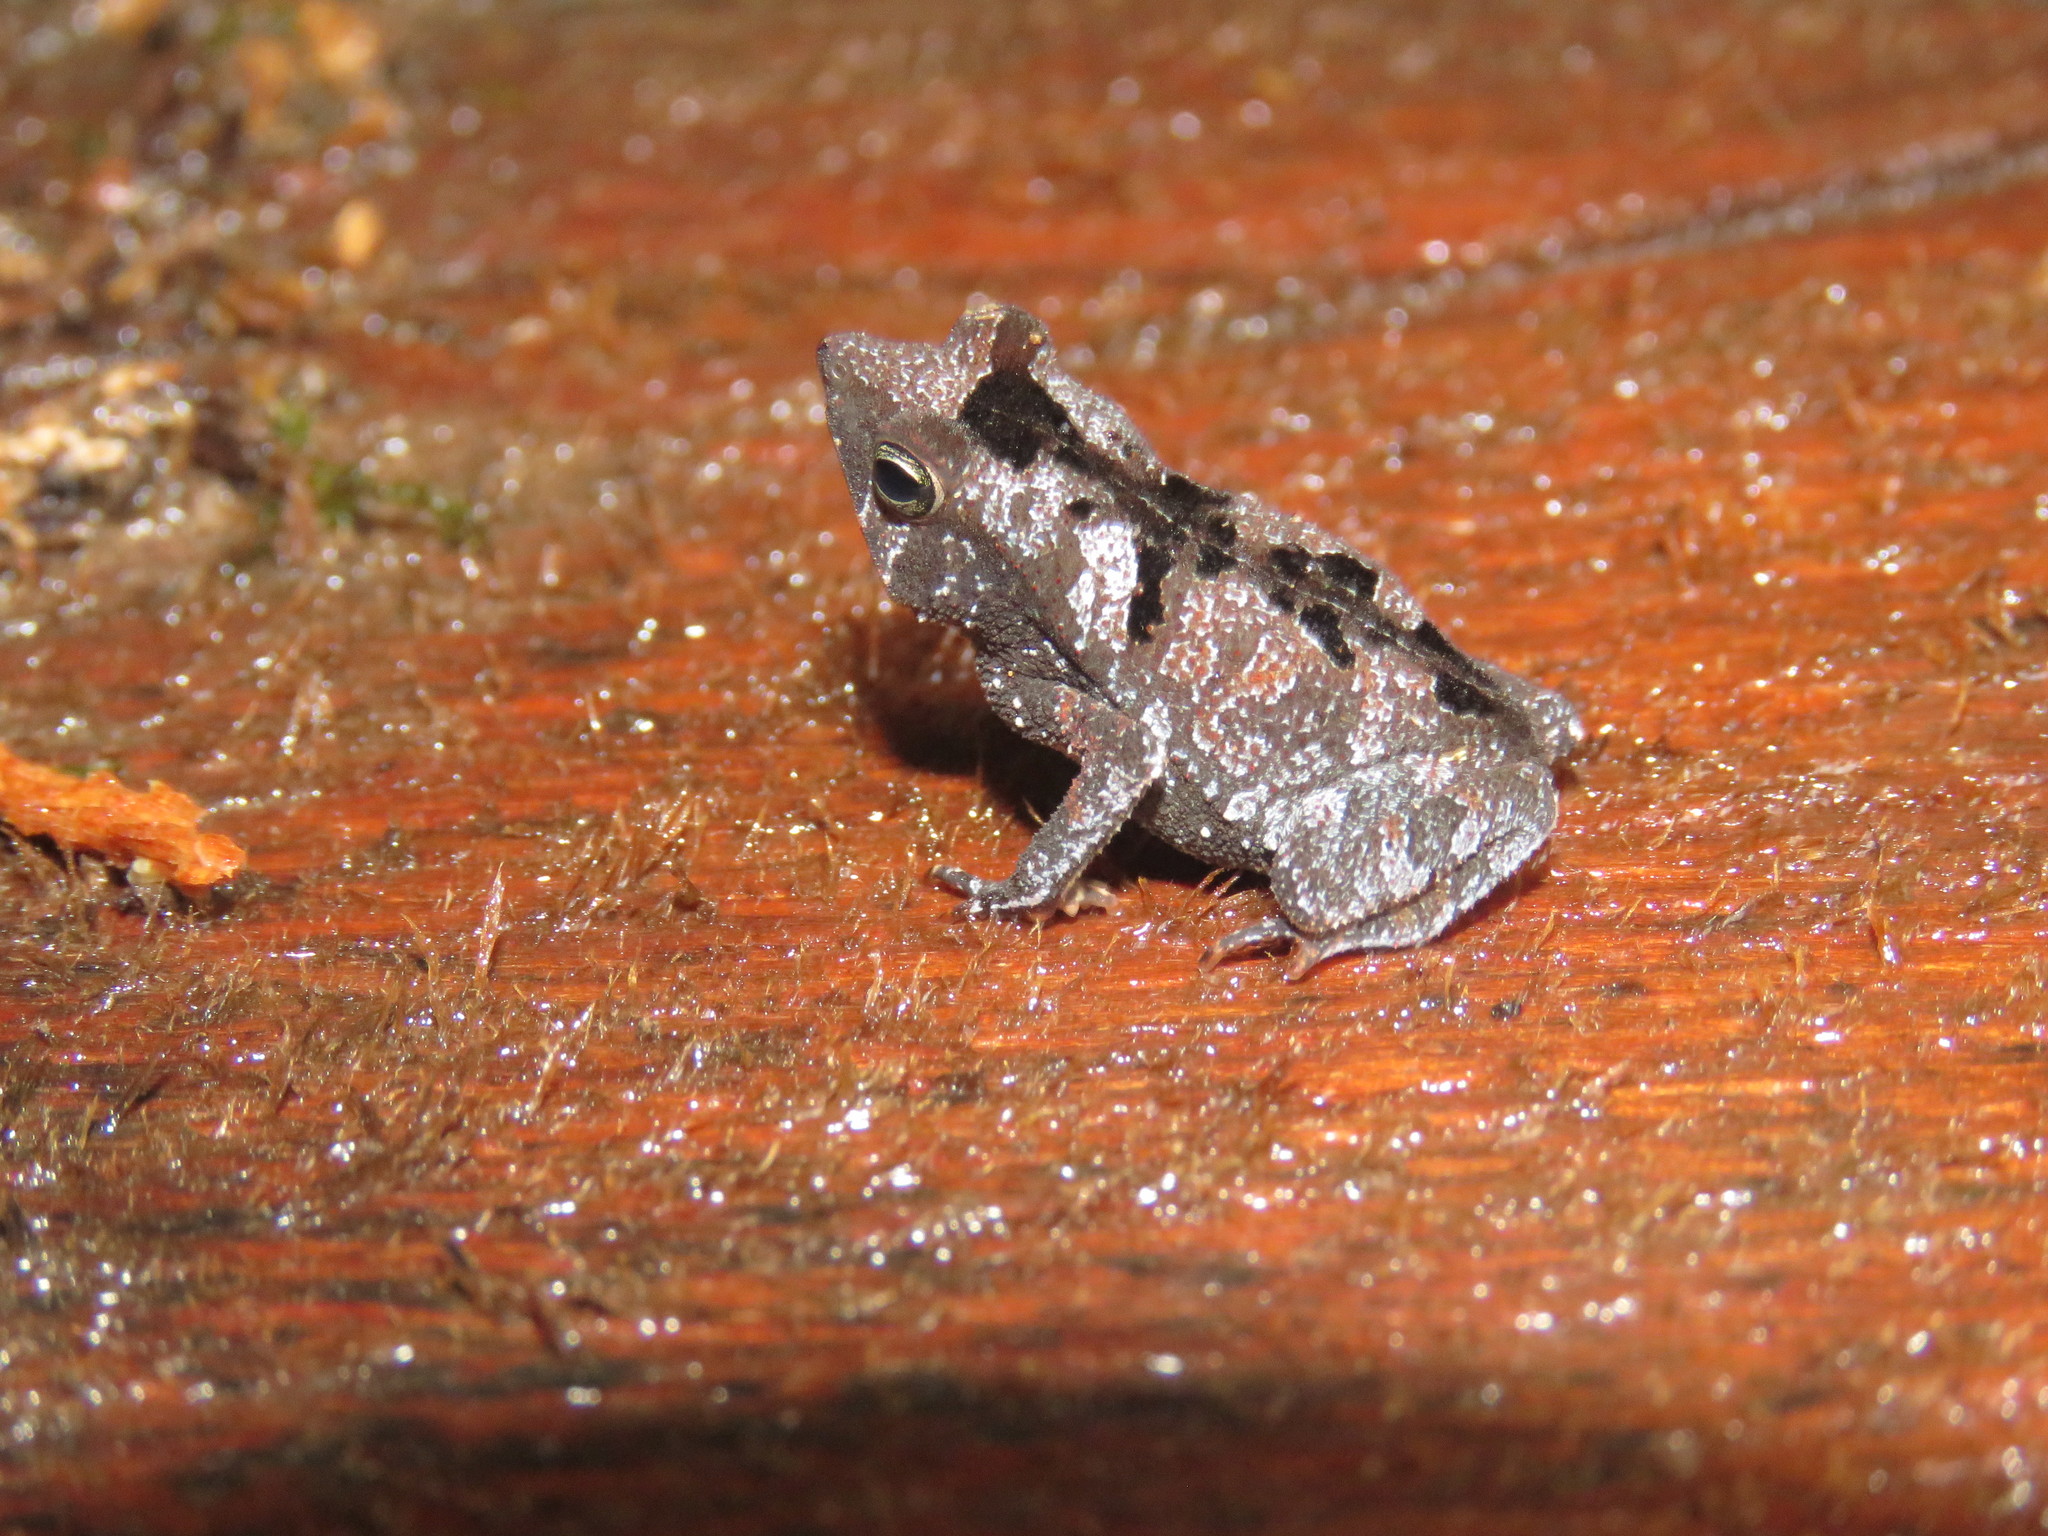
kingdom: Animalia
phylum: Chordata
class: Amphibia
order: Anura
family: Bufonidae
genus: Rhinella
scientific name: Rhinella castaneotica
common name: Para toad
